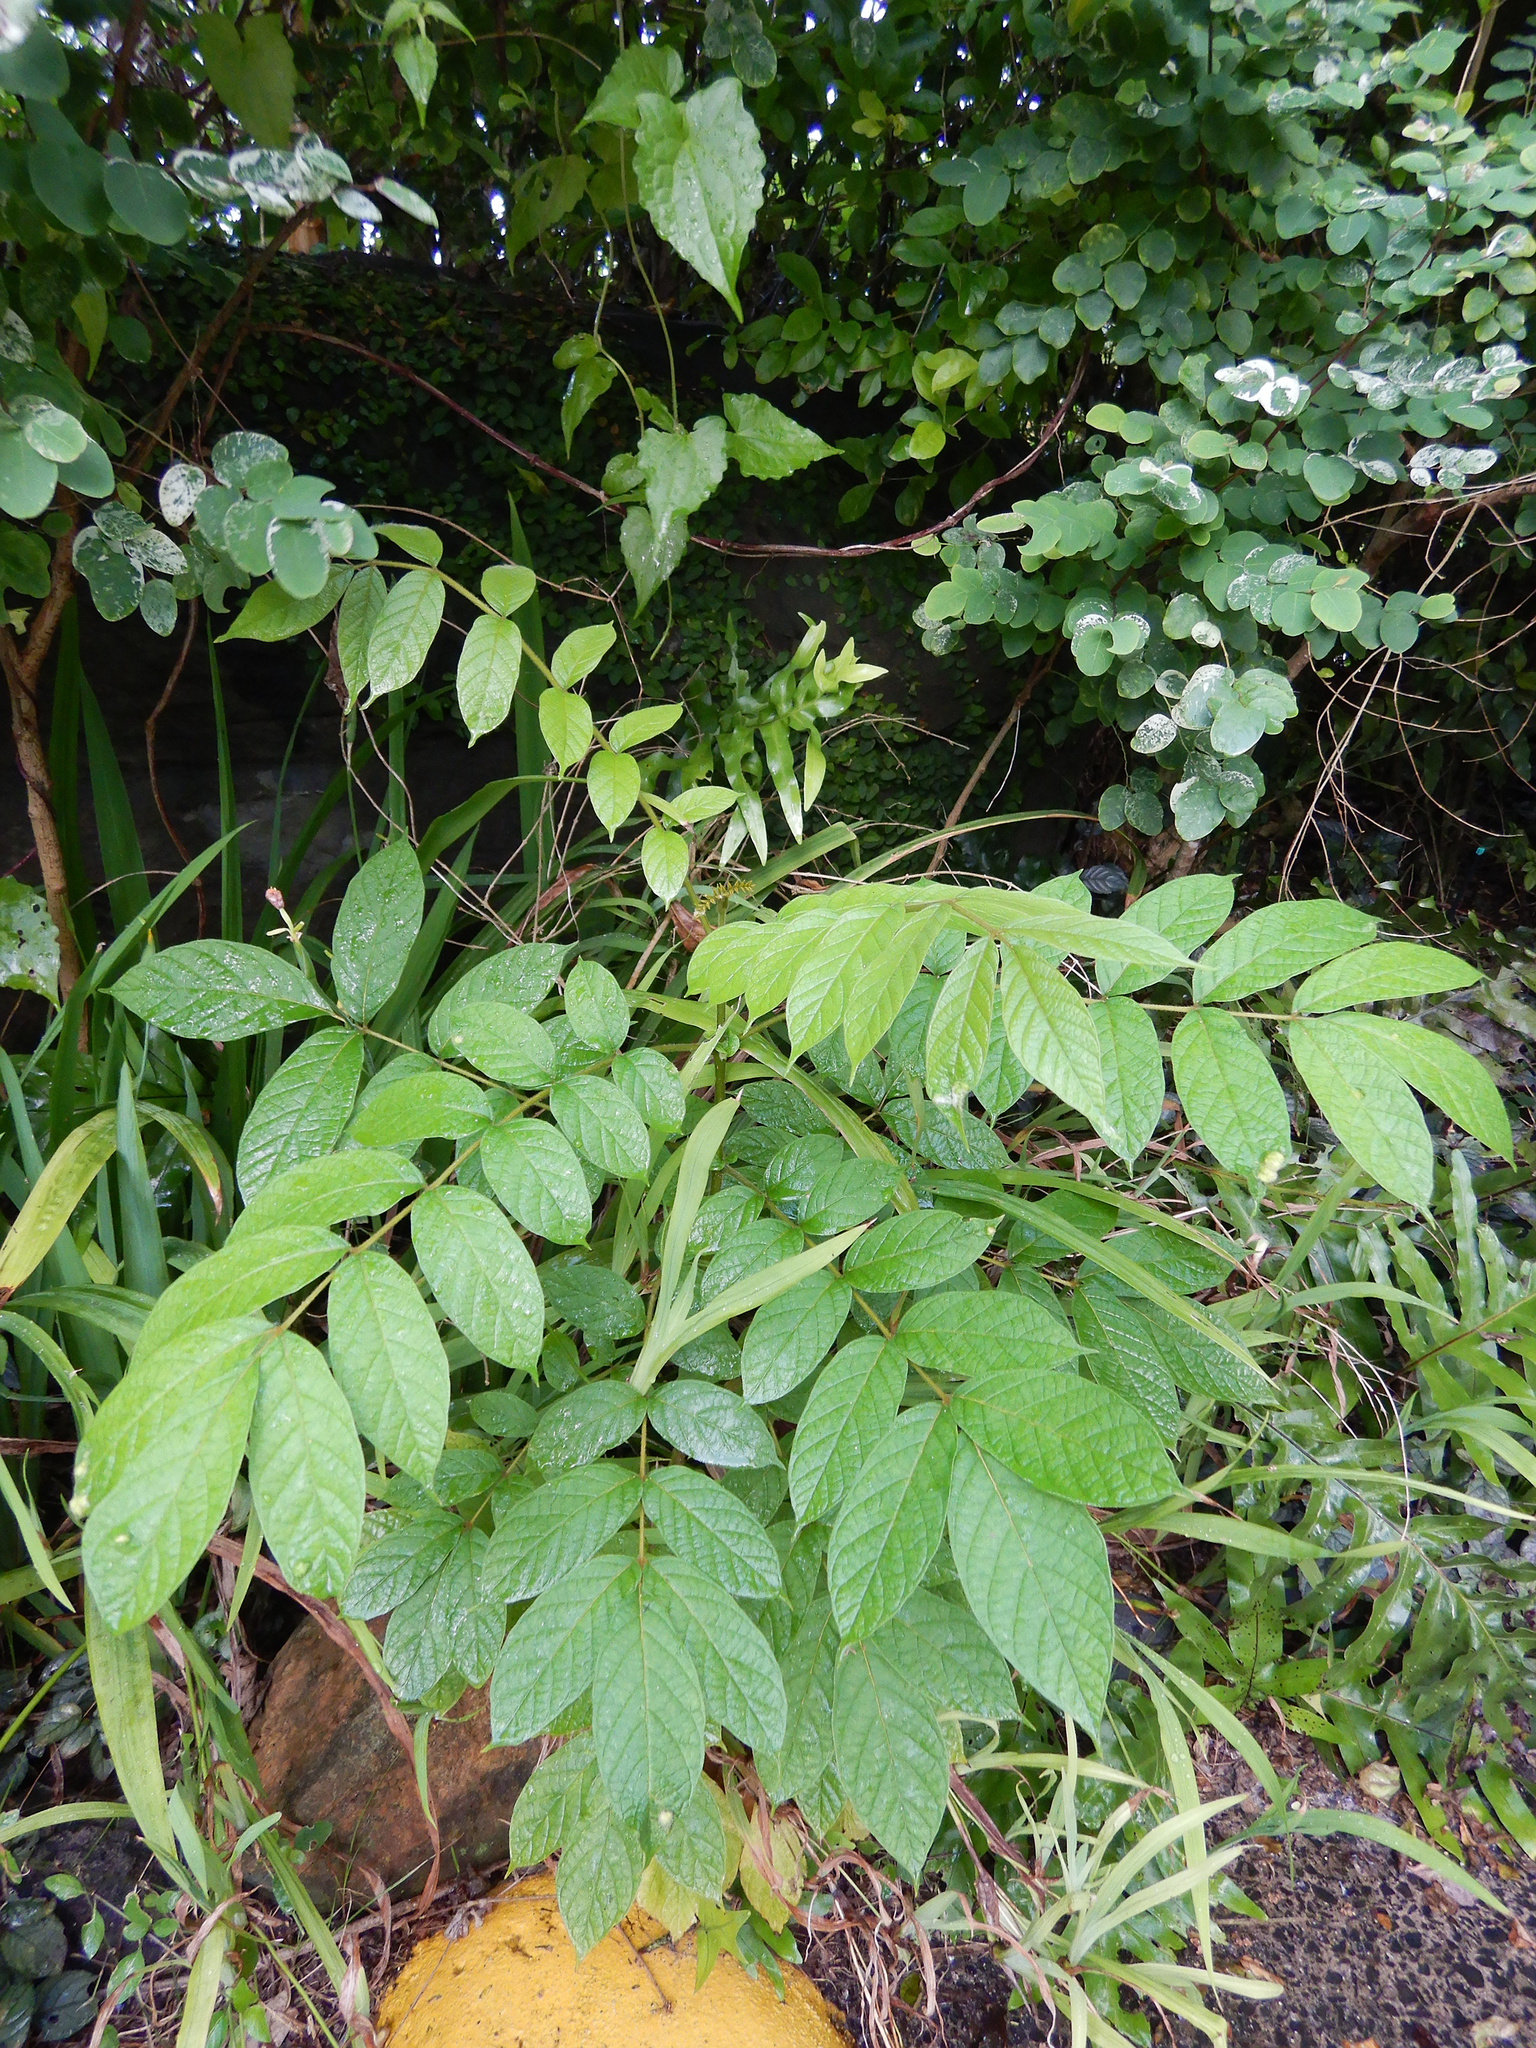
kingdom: Plantae
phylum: Tracheophyta
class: Magnoliopsida
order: Lamiales
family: Bignoniaceae
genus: Spathodea
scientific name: Spathodea campanulata
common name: African tuliptree
